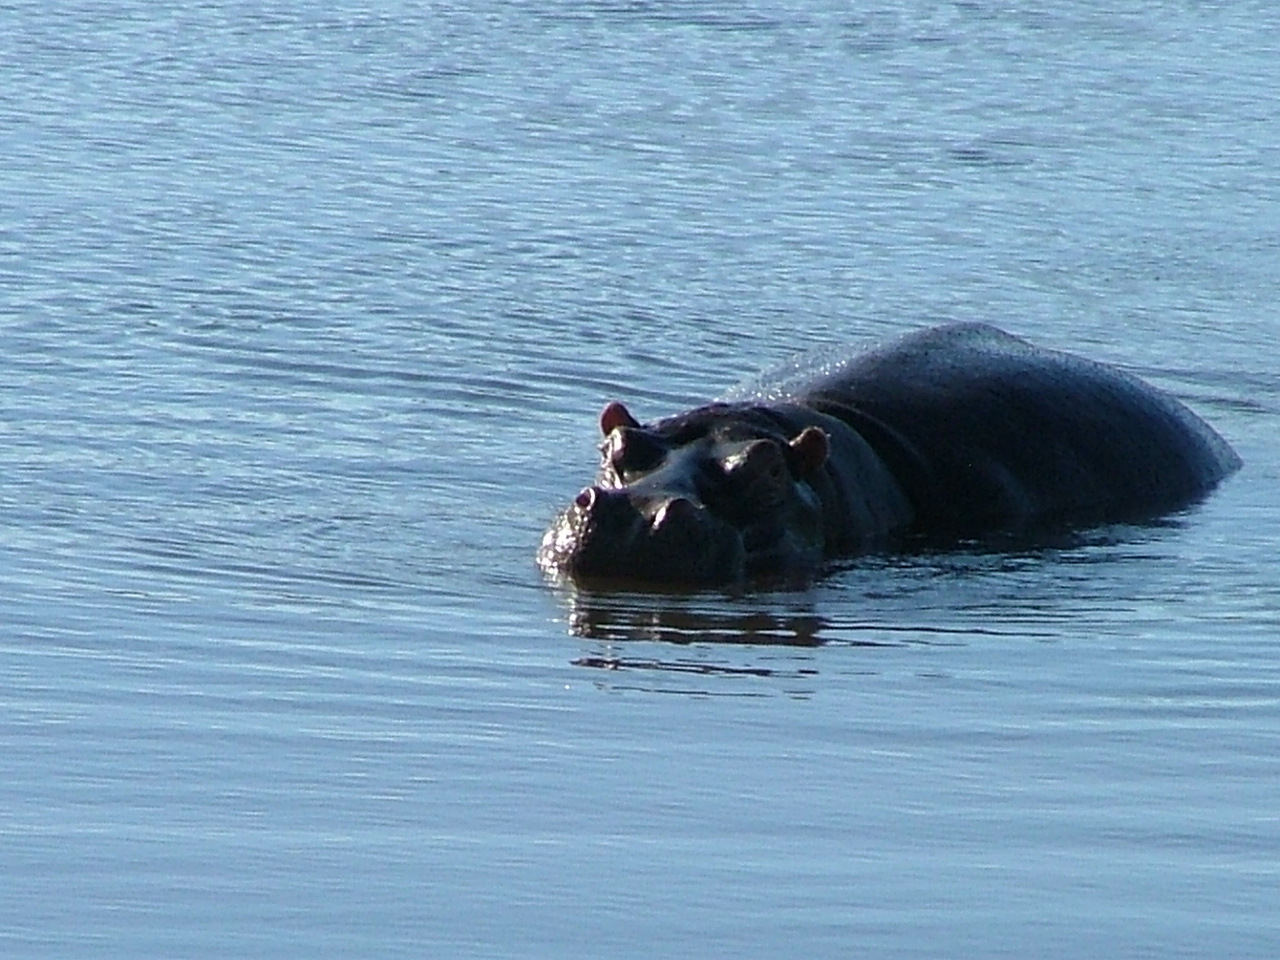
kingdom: Animalia
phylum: Chordata
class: Mammalia
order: Artiodactyla
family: Hippopotamidae
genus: Hippopotamus
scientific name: Hippopotamus amphibius
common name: Common hippopotamus
